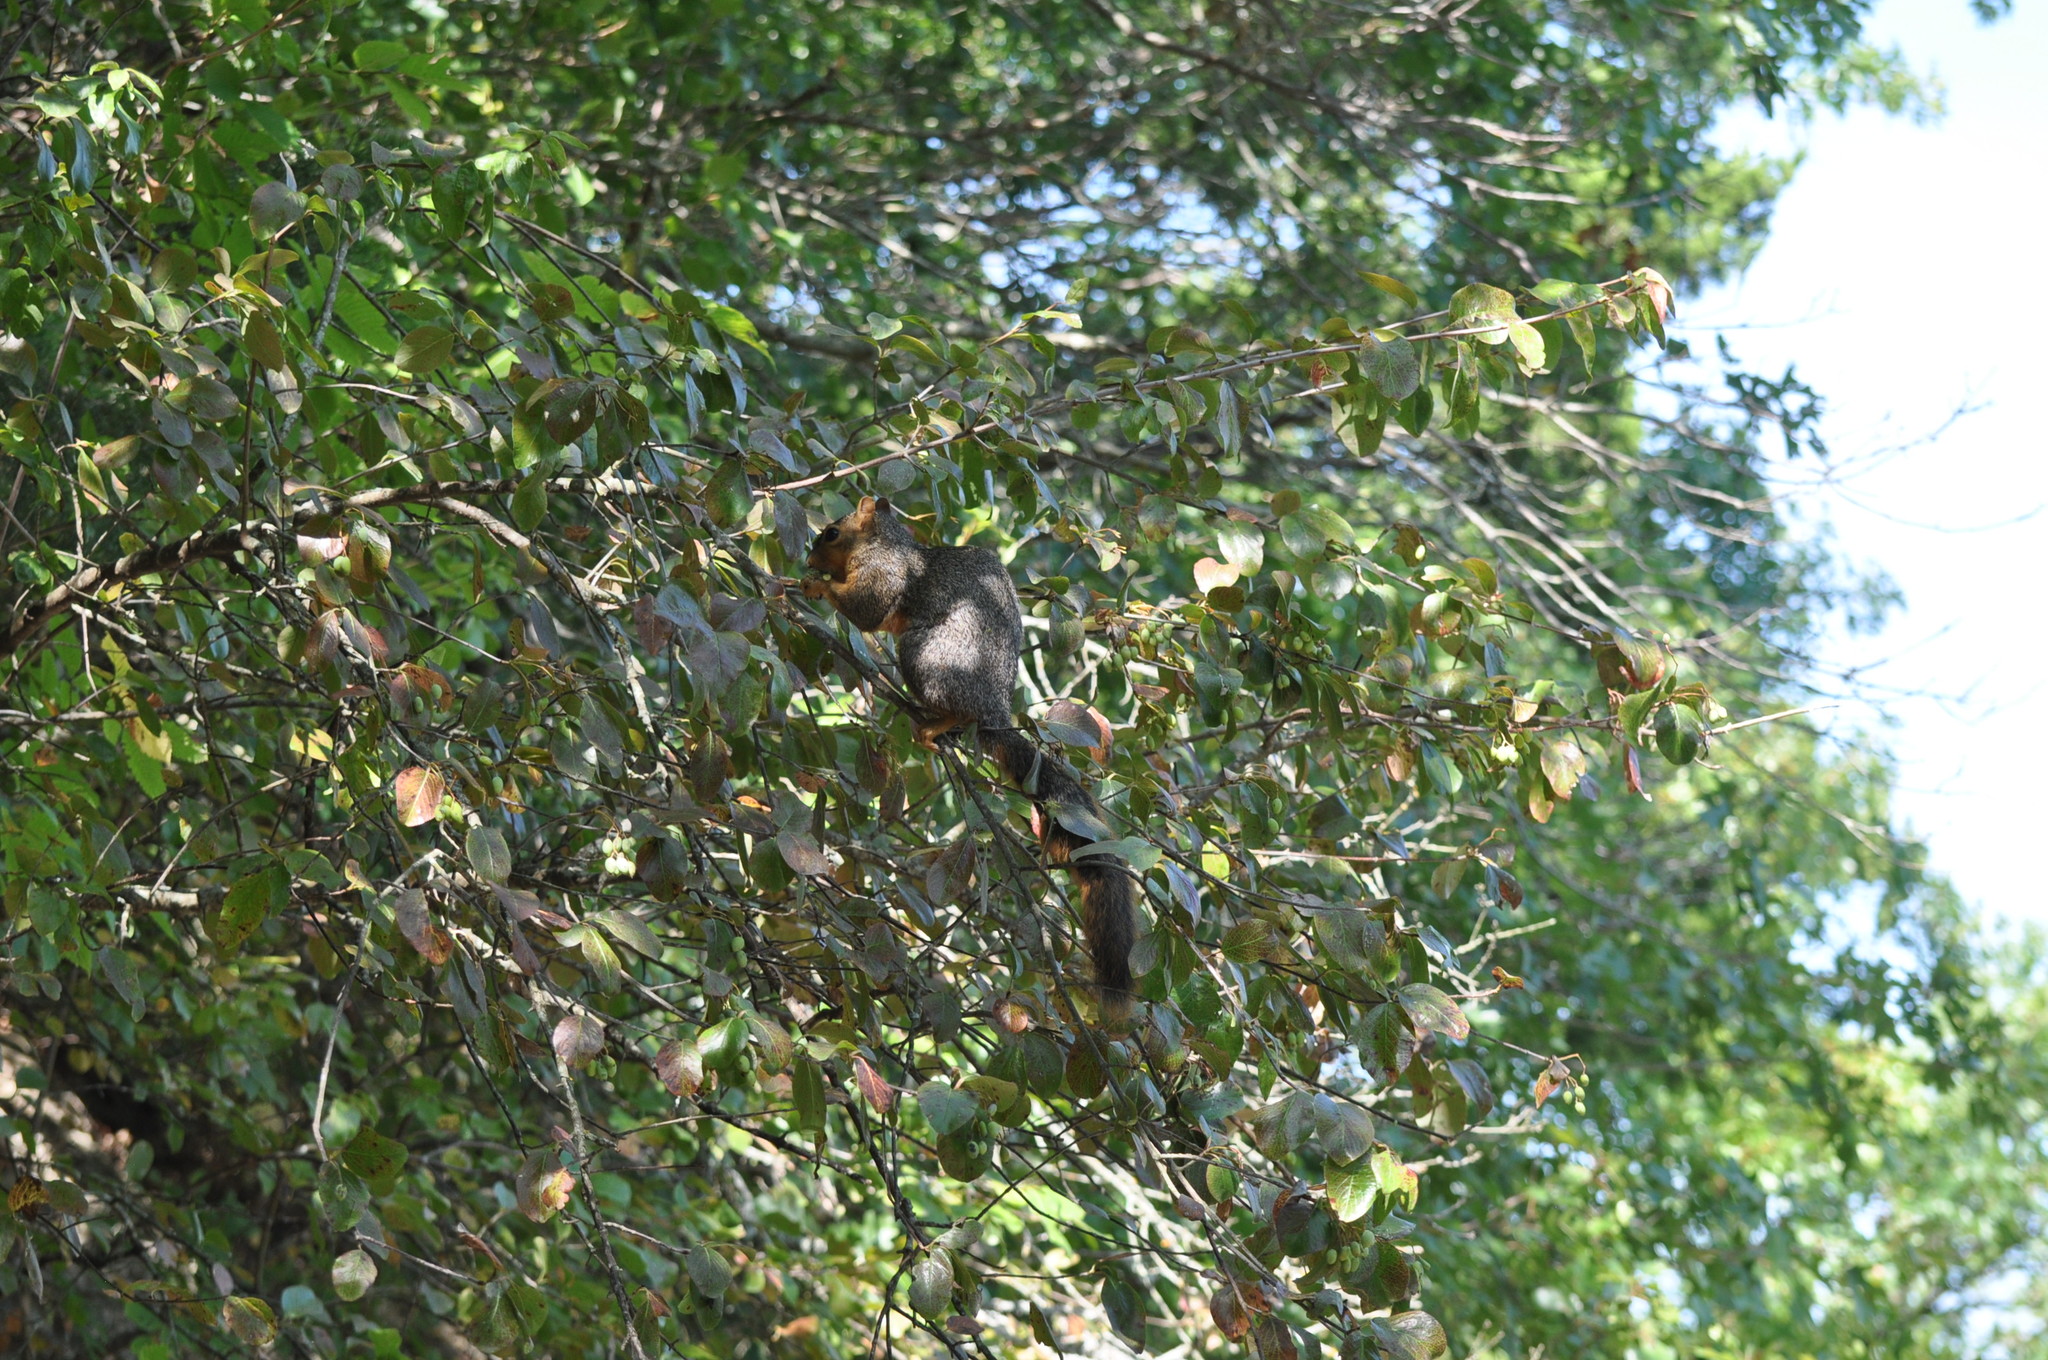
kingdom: Animalia
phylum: Chordata
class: Mammalia
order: Rodentia
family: Sciuridae
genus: Sciurus
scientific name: Sciurus niger
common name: Fox squirrel
